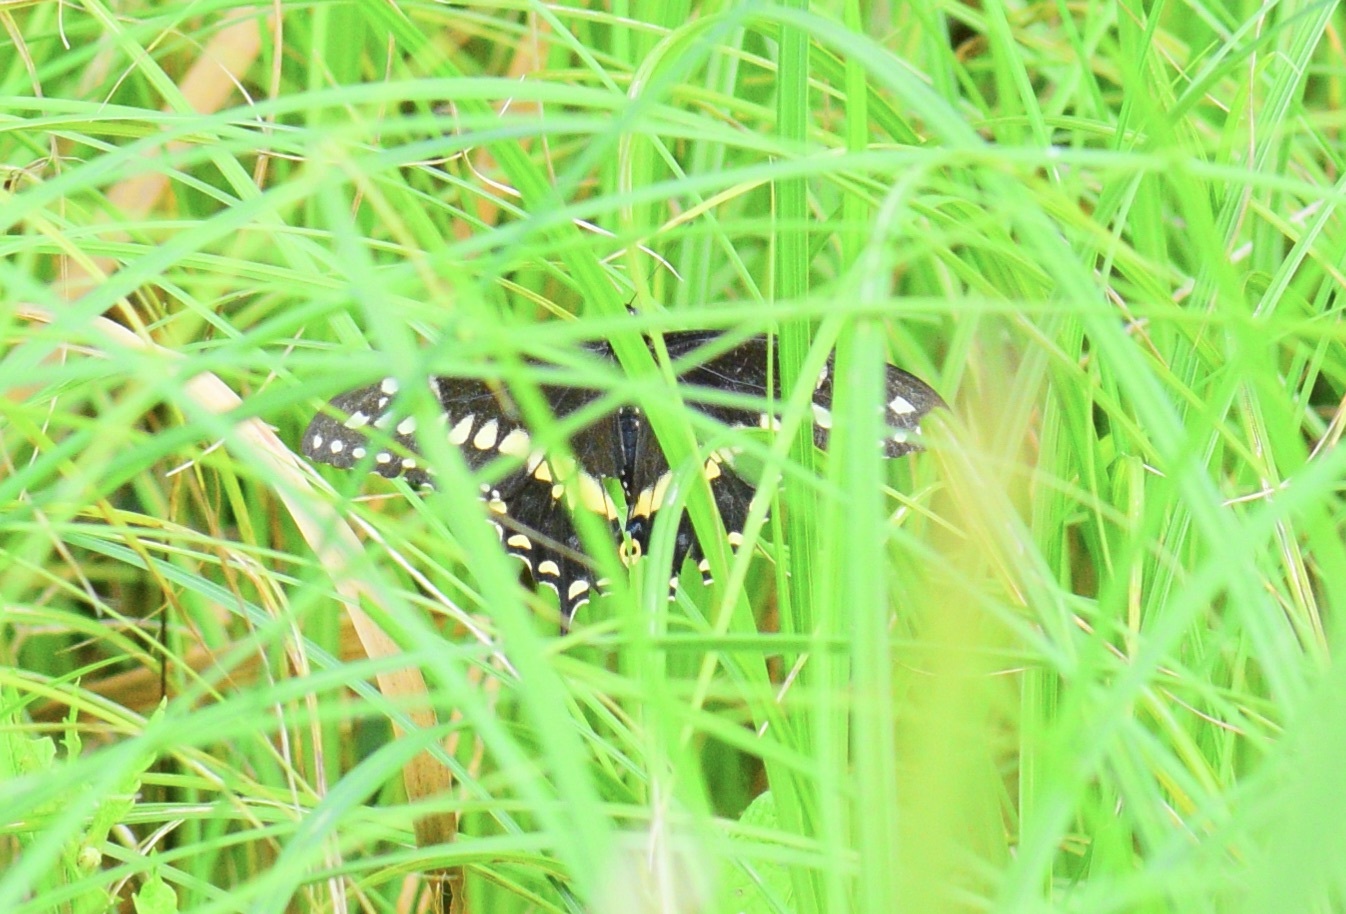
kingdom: Animalia
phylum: Arthropoda
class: Insecta
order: Lepidoptera
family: Papilionidae
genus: Papilio
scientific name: Papilio polyxenes
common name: Black swallowtail
